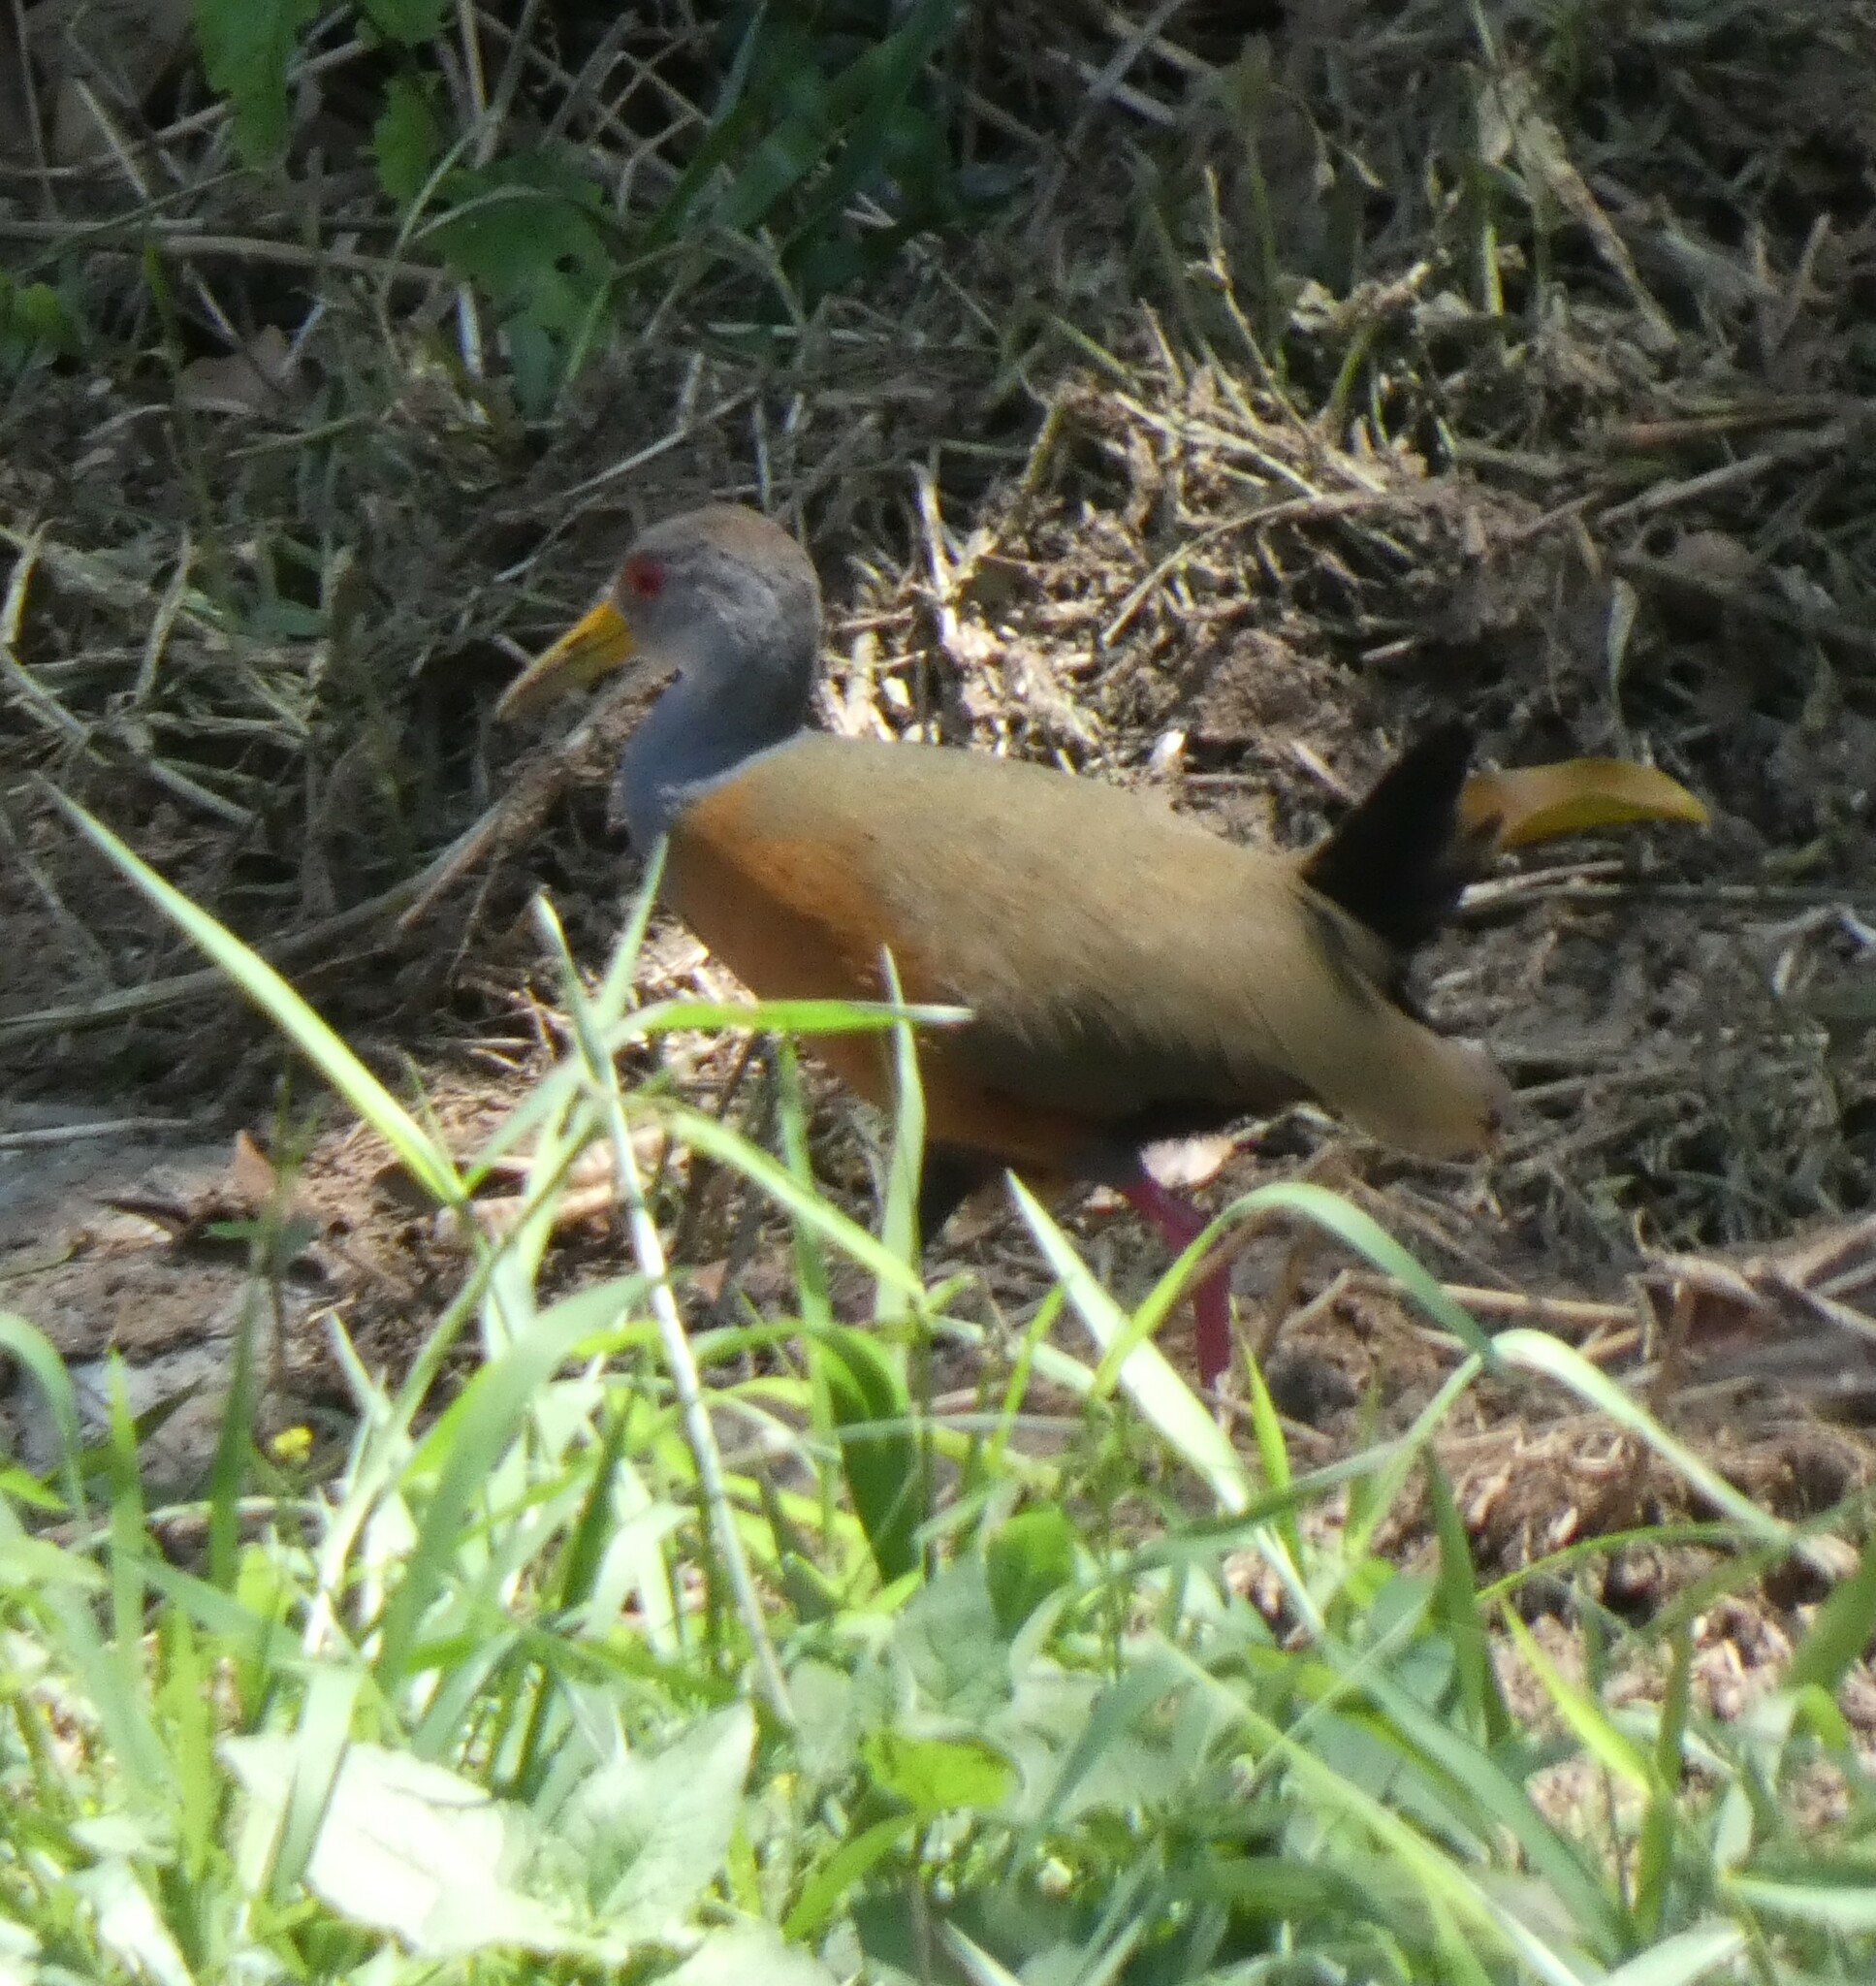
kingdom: Animalia
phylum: Chordata
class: Aves
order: Gruiformes
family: Rallidae
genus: Aramides
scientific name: Aramides cajanea
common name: Gray-necked wood-rail
